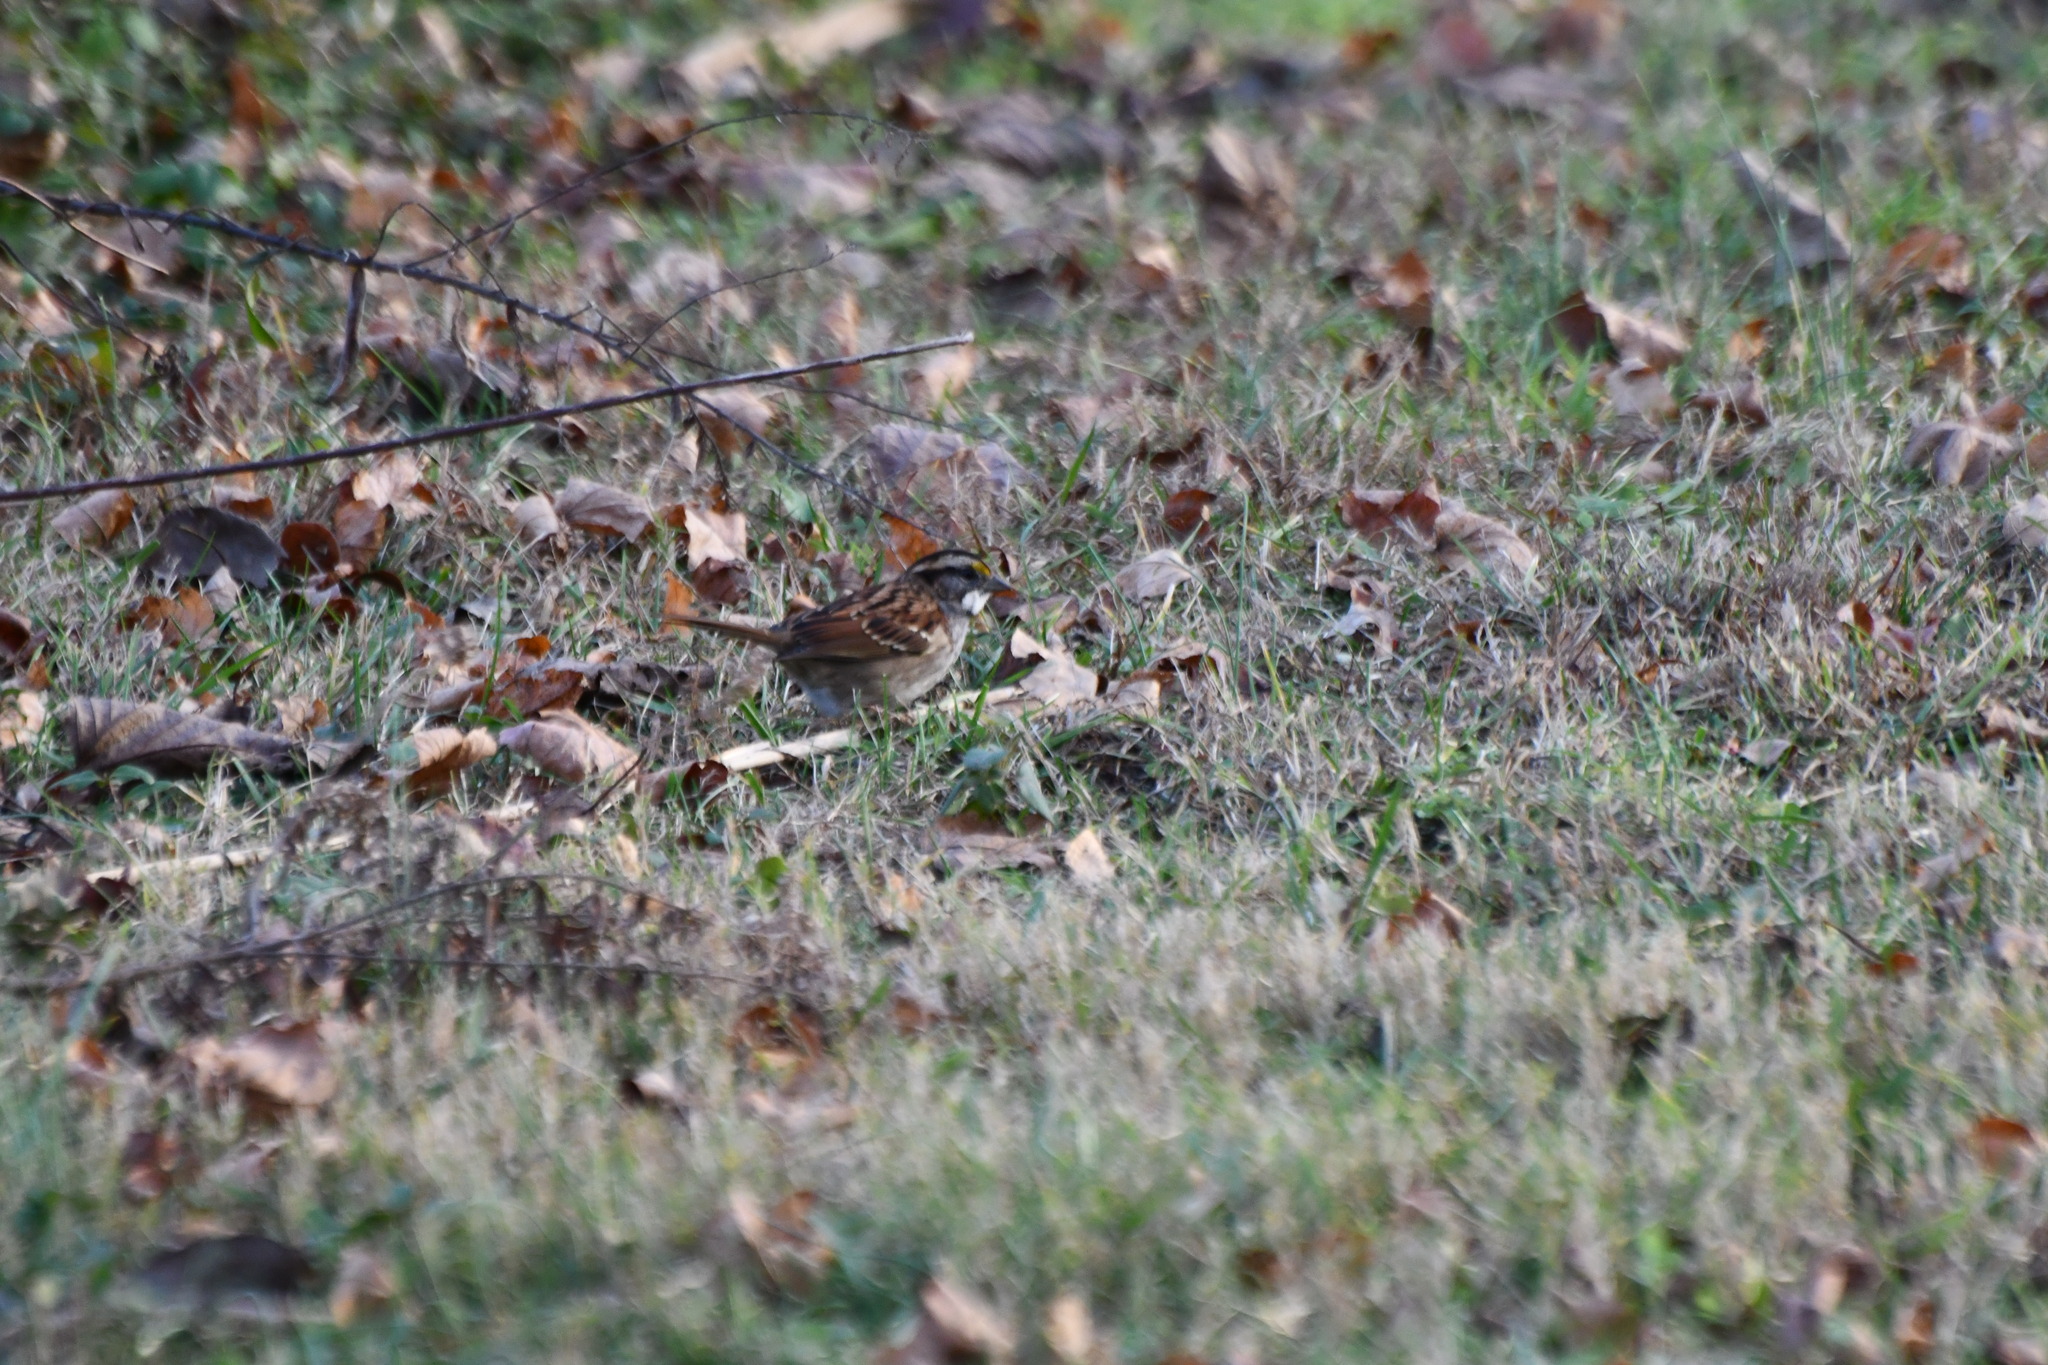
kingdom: Animalia
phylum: Chordata
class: Aves
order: Passeriformes
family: Passerellidae
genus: Zonotrichia
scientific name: Zonotrichia albicollis
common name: White-throated sparrow
